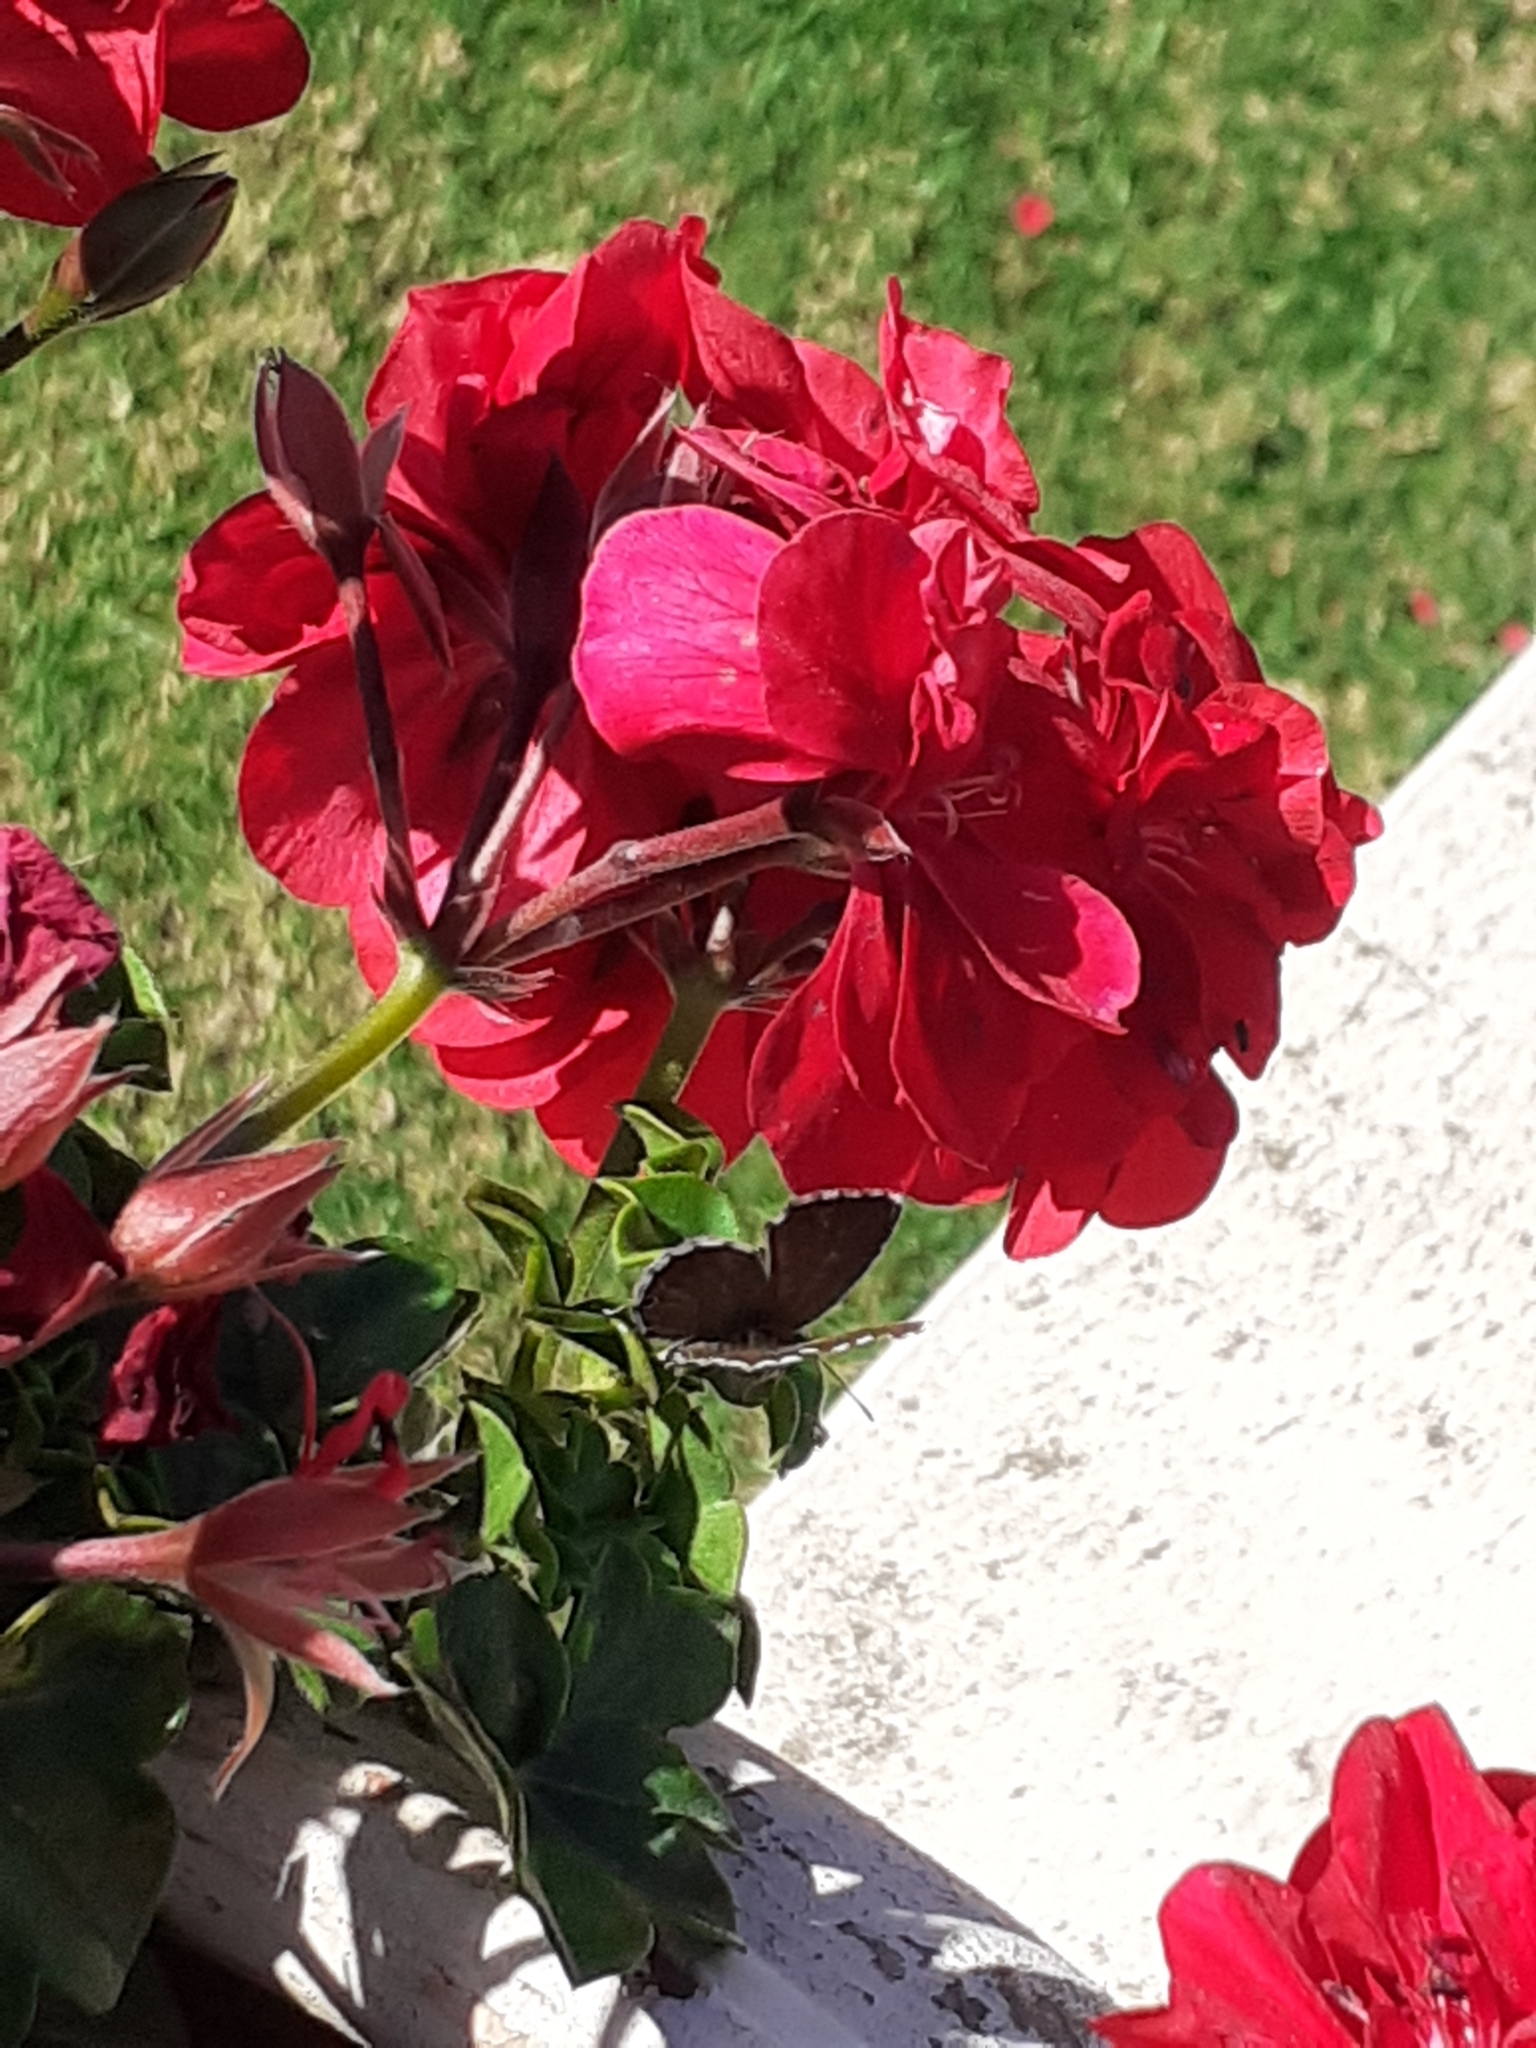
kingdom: Animalia
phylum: Arthropoda
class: Insecta
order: Lepidoptera
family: Lycaenidae
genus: Cacyreus
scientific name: Cacyreus marshalli
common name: Geranium bronze
